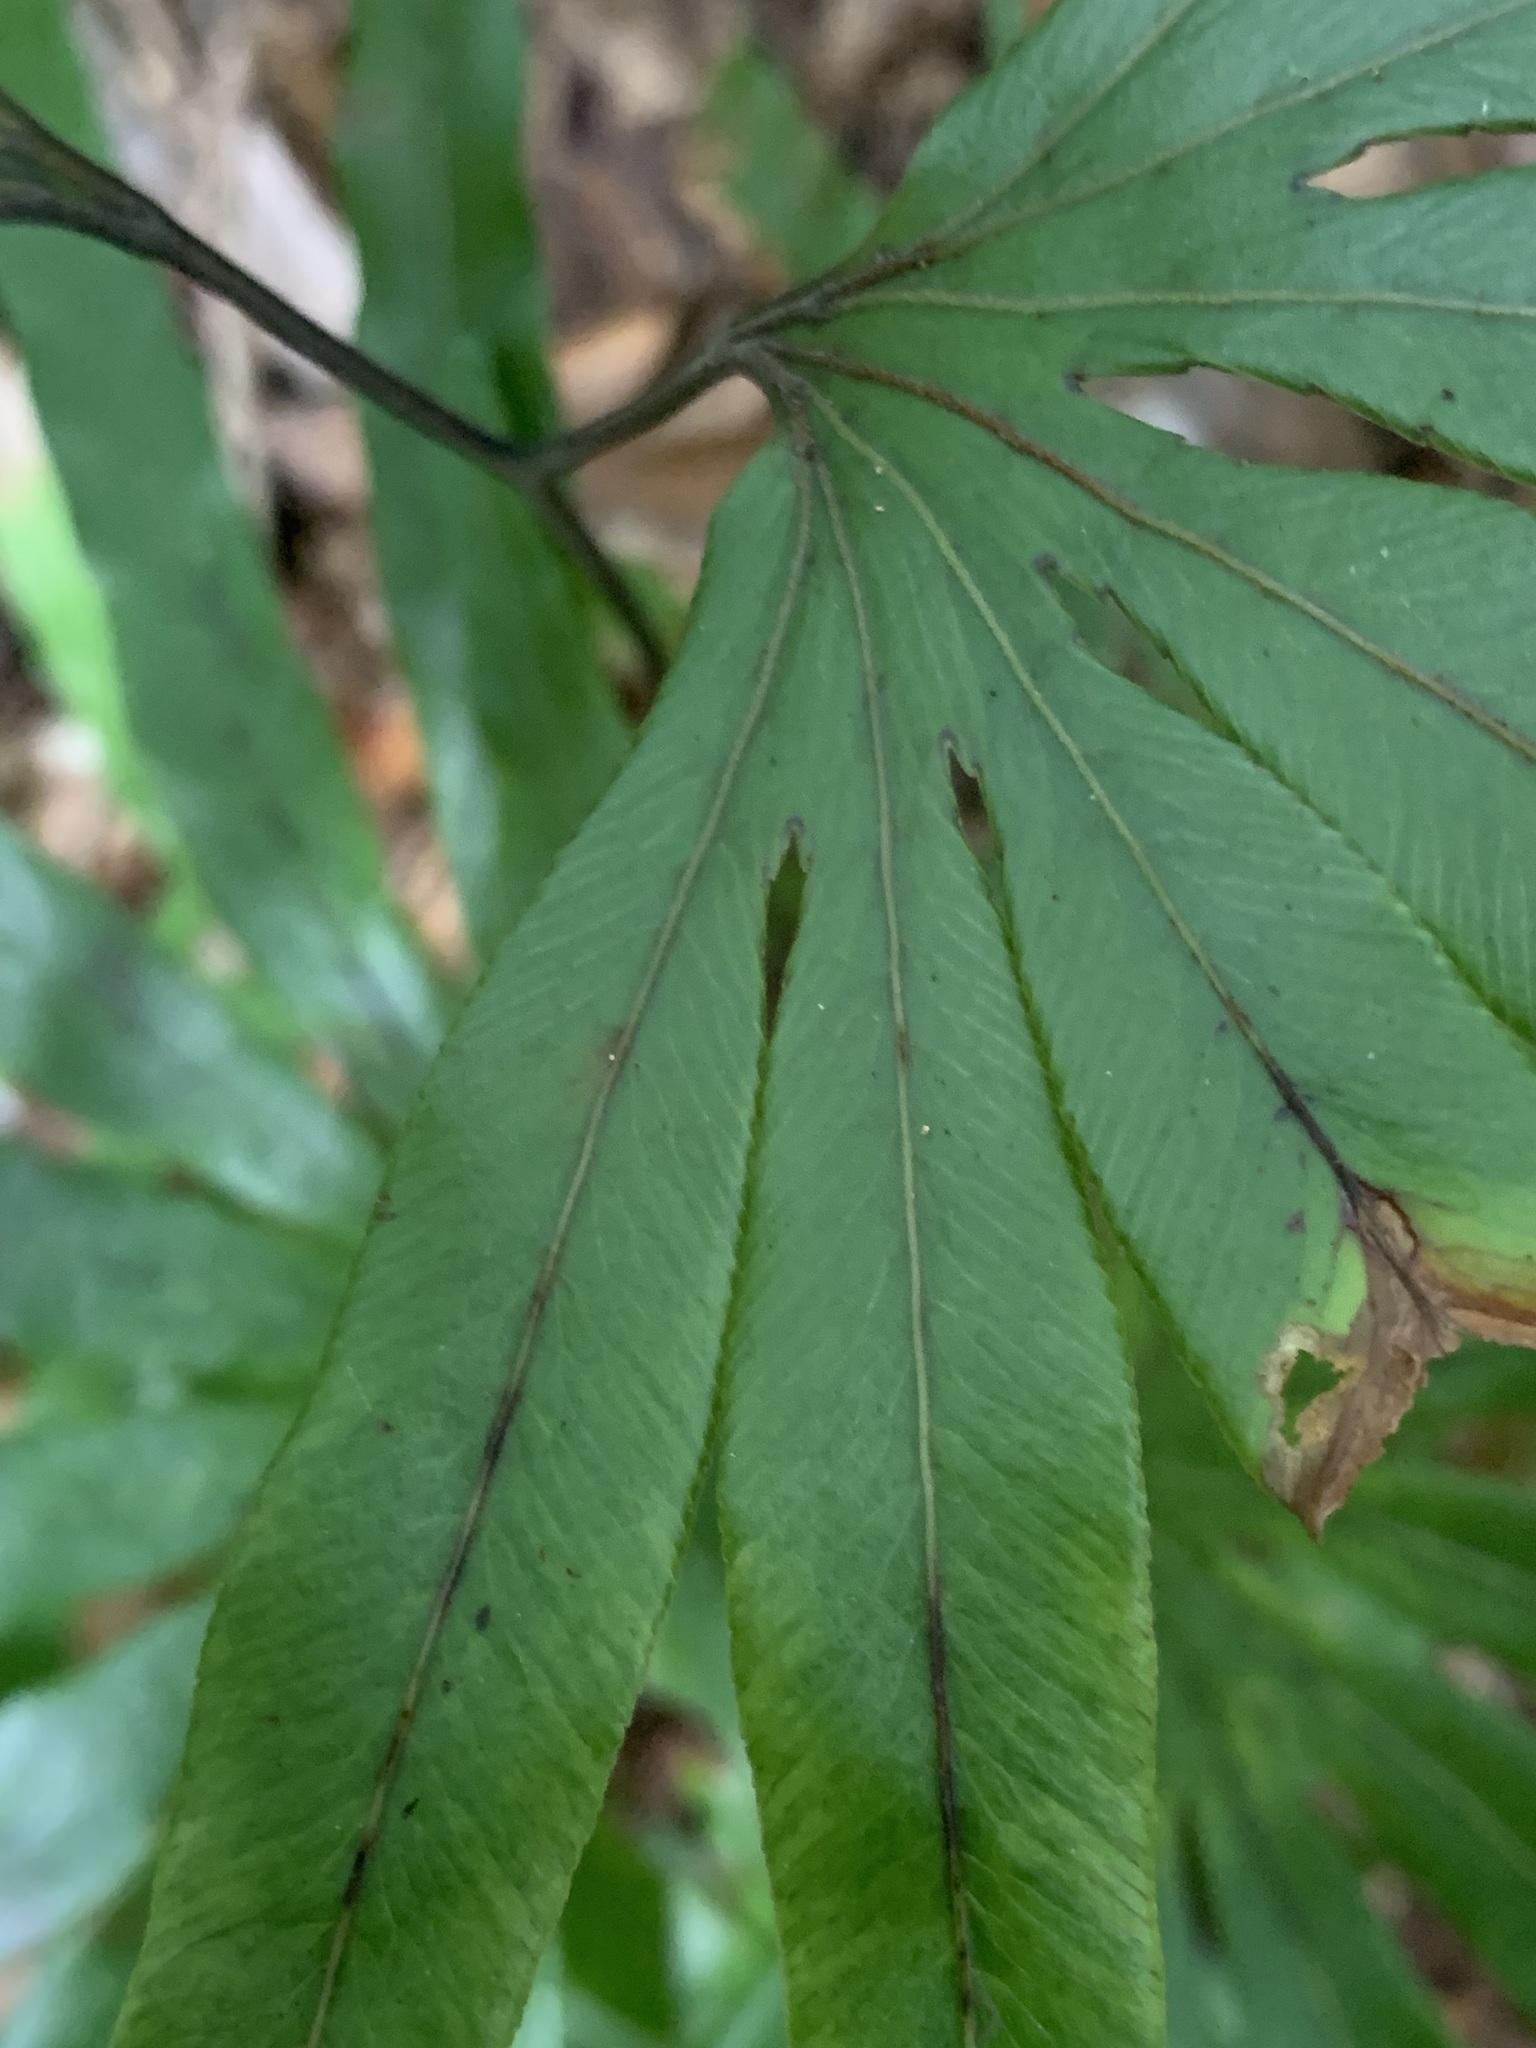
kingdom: Plantae
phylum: Tracheophyta
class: Polypodiopsida
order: Schizaeales
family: Lygodiaceae
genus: Lygodium
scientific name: Lygodium longifolium
